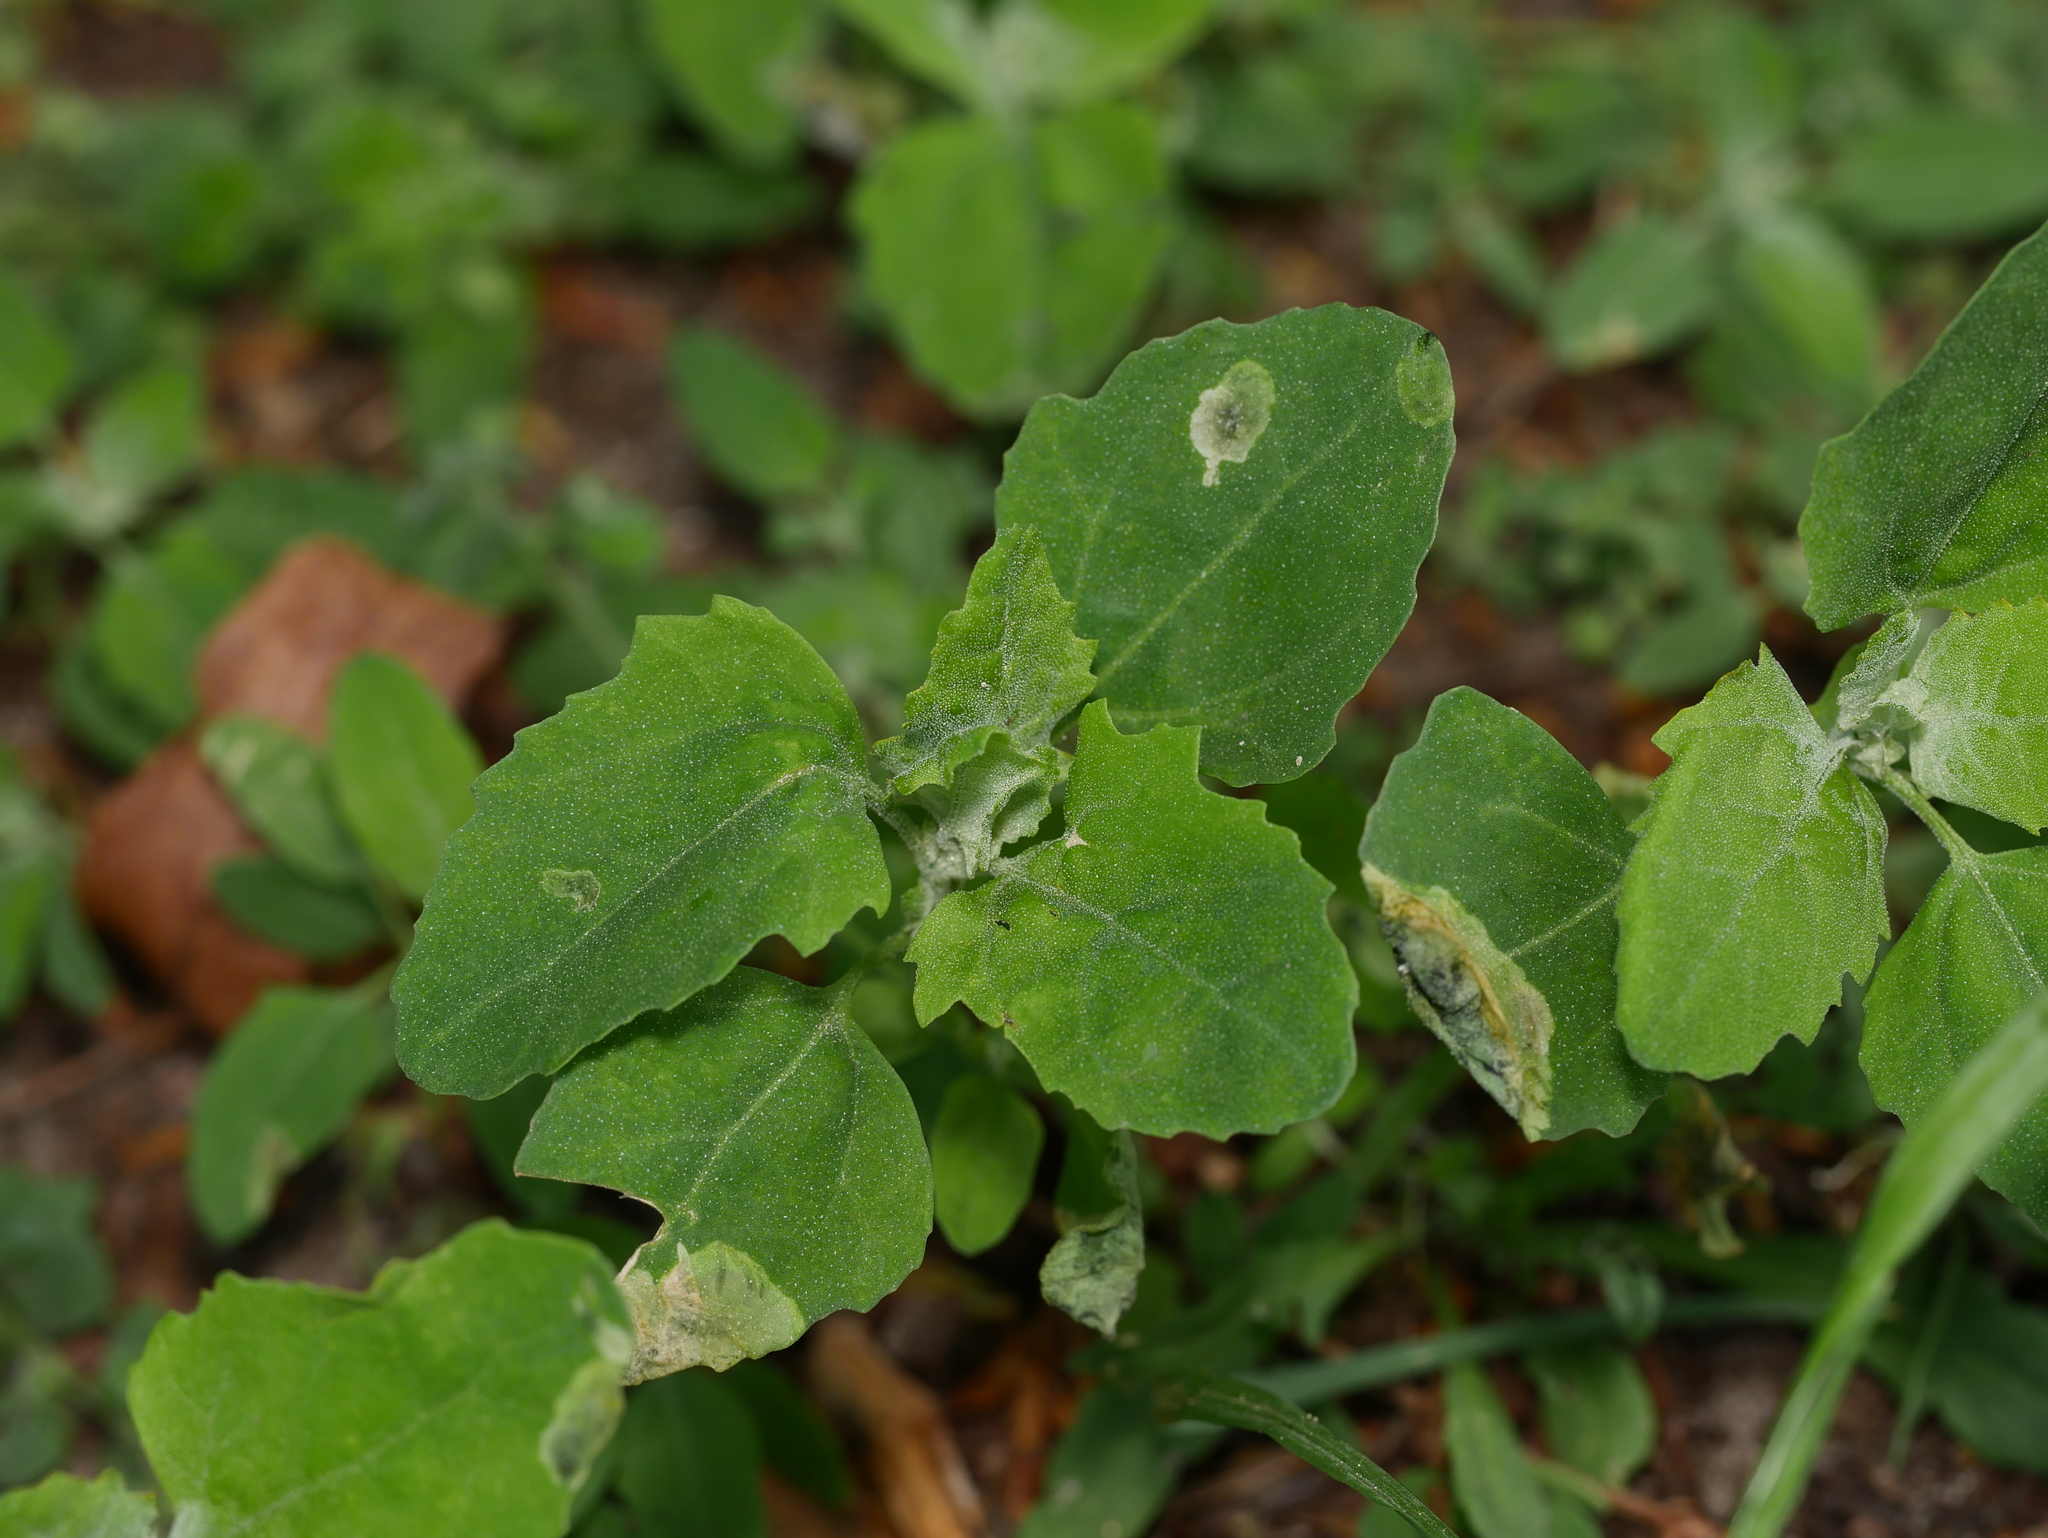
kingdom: Plantae
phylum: Tracheophyta
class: Magnoliopsida
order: Caryophyllales
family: Amaranthaceae
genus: Chenopodium
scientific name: Chenopodium album
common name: Fat-hen
